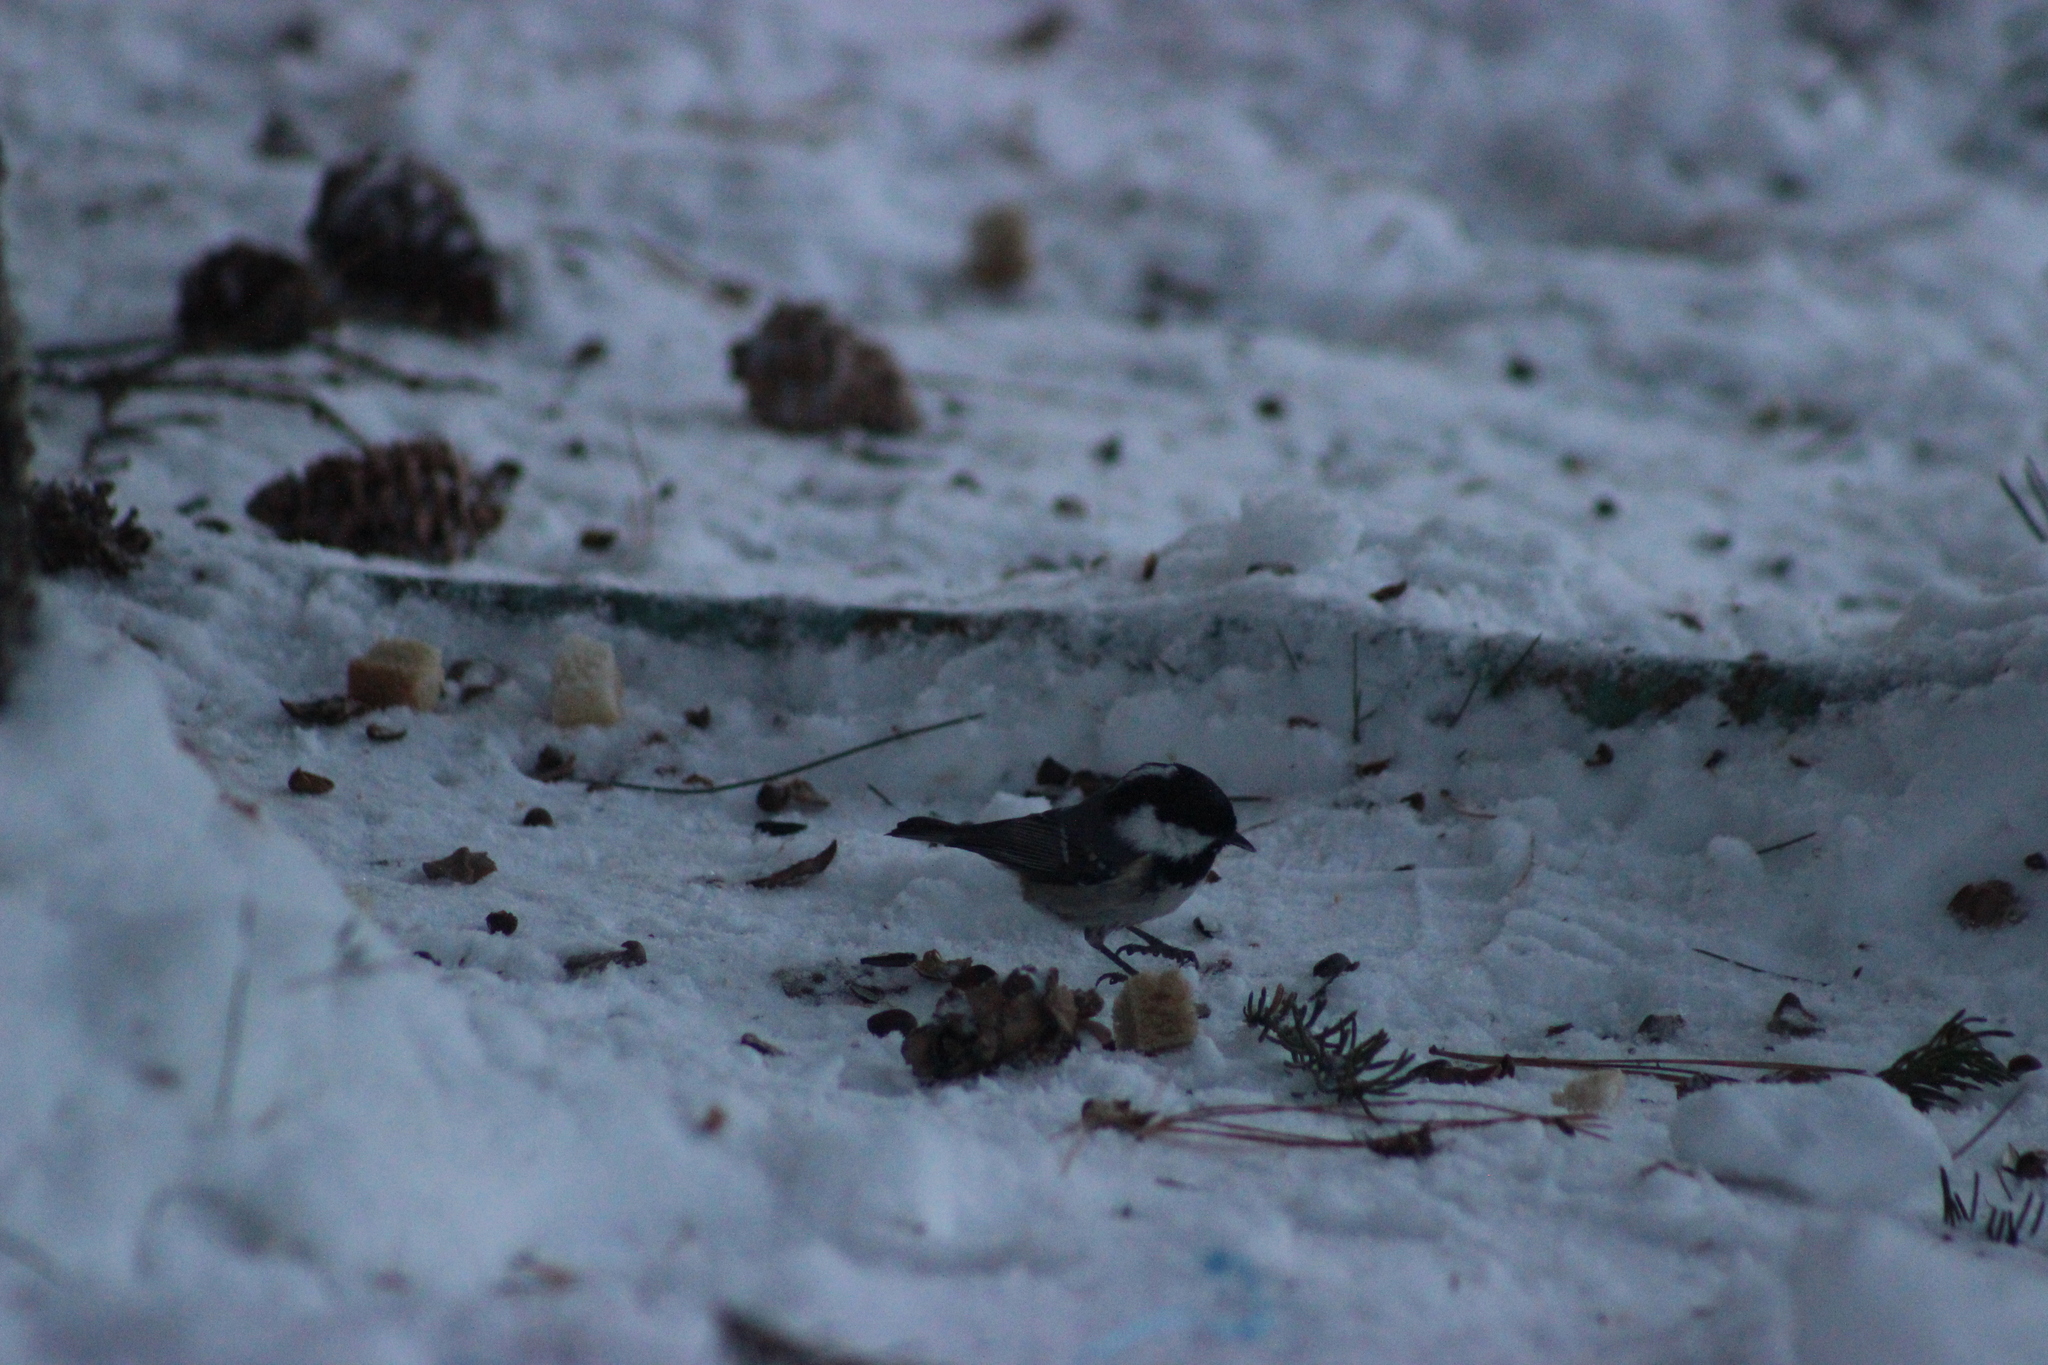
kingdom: Animalia
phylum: Chordata
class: Aves
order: Passeriformes
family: Paridae
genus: Periparus
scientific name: Periparus ater
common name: Coal tit
